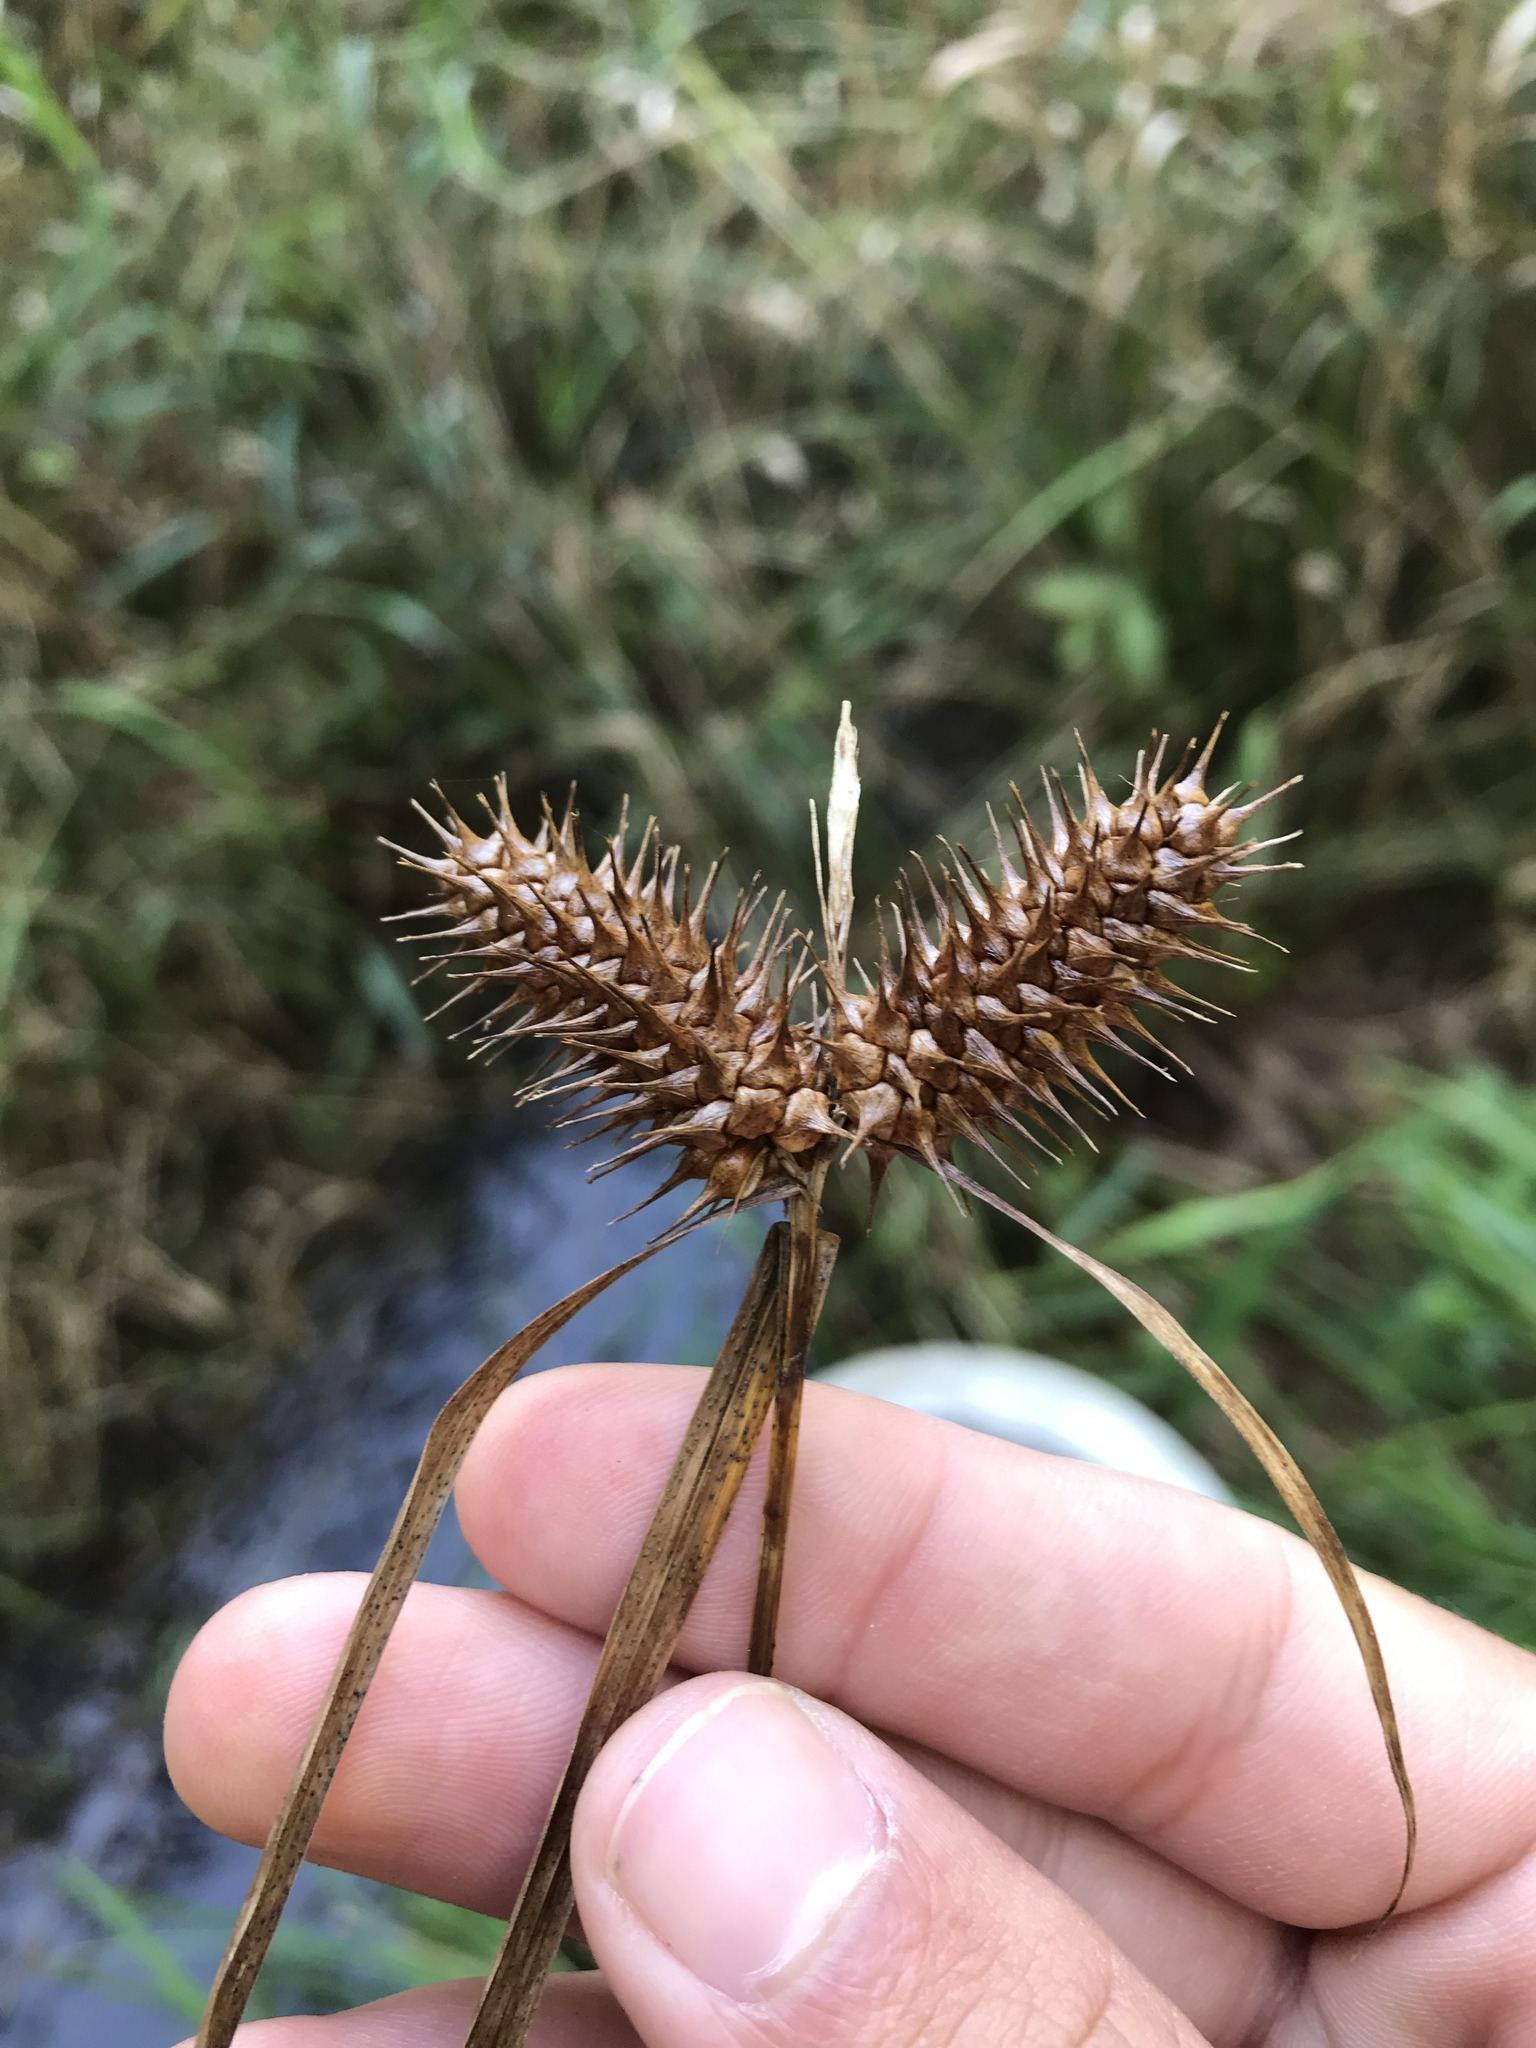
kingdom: Plantae
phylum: Tracheophyta
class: Liliopsida
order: Poales
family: Cyperaceae
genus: Carex
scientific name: Carex lupulina
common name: Hop sedge
